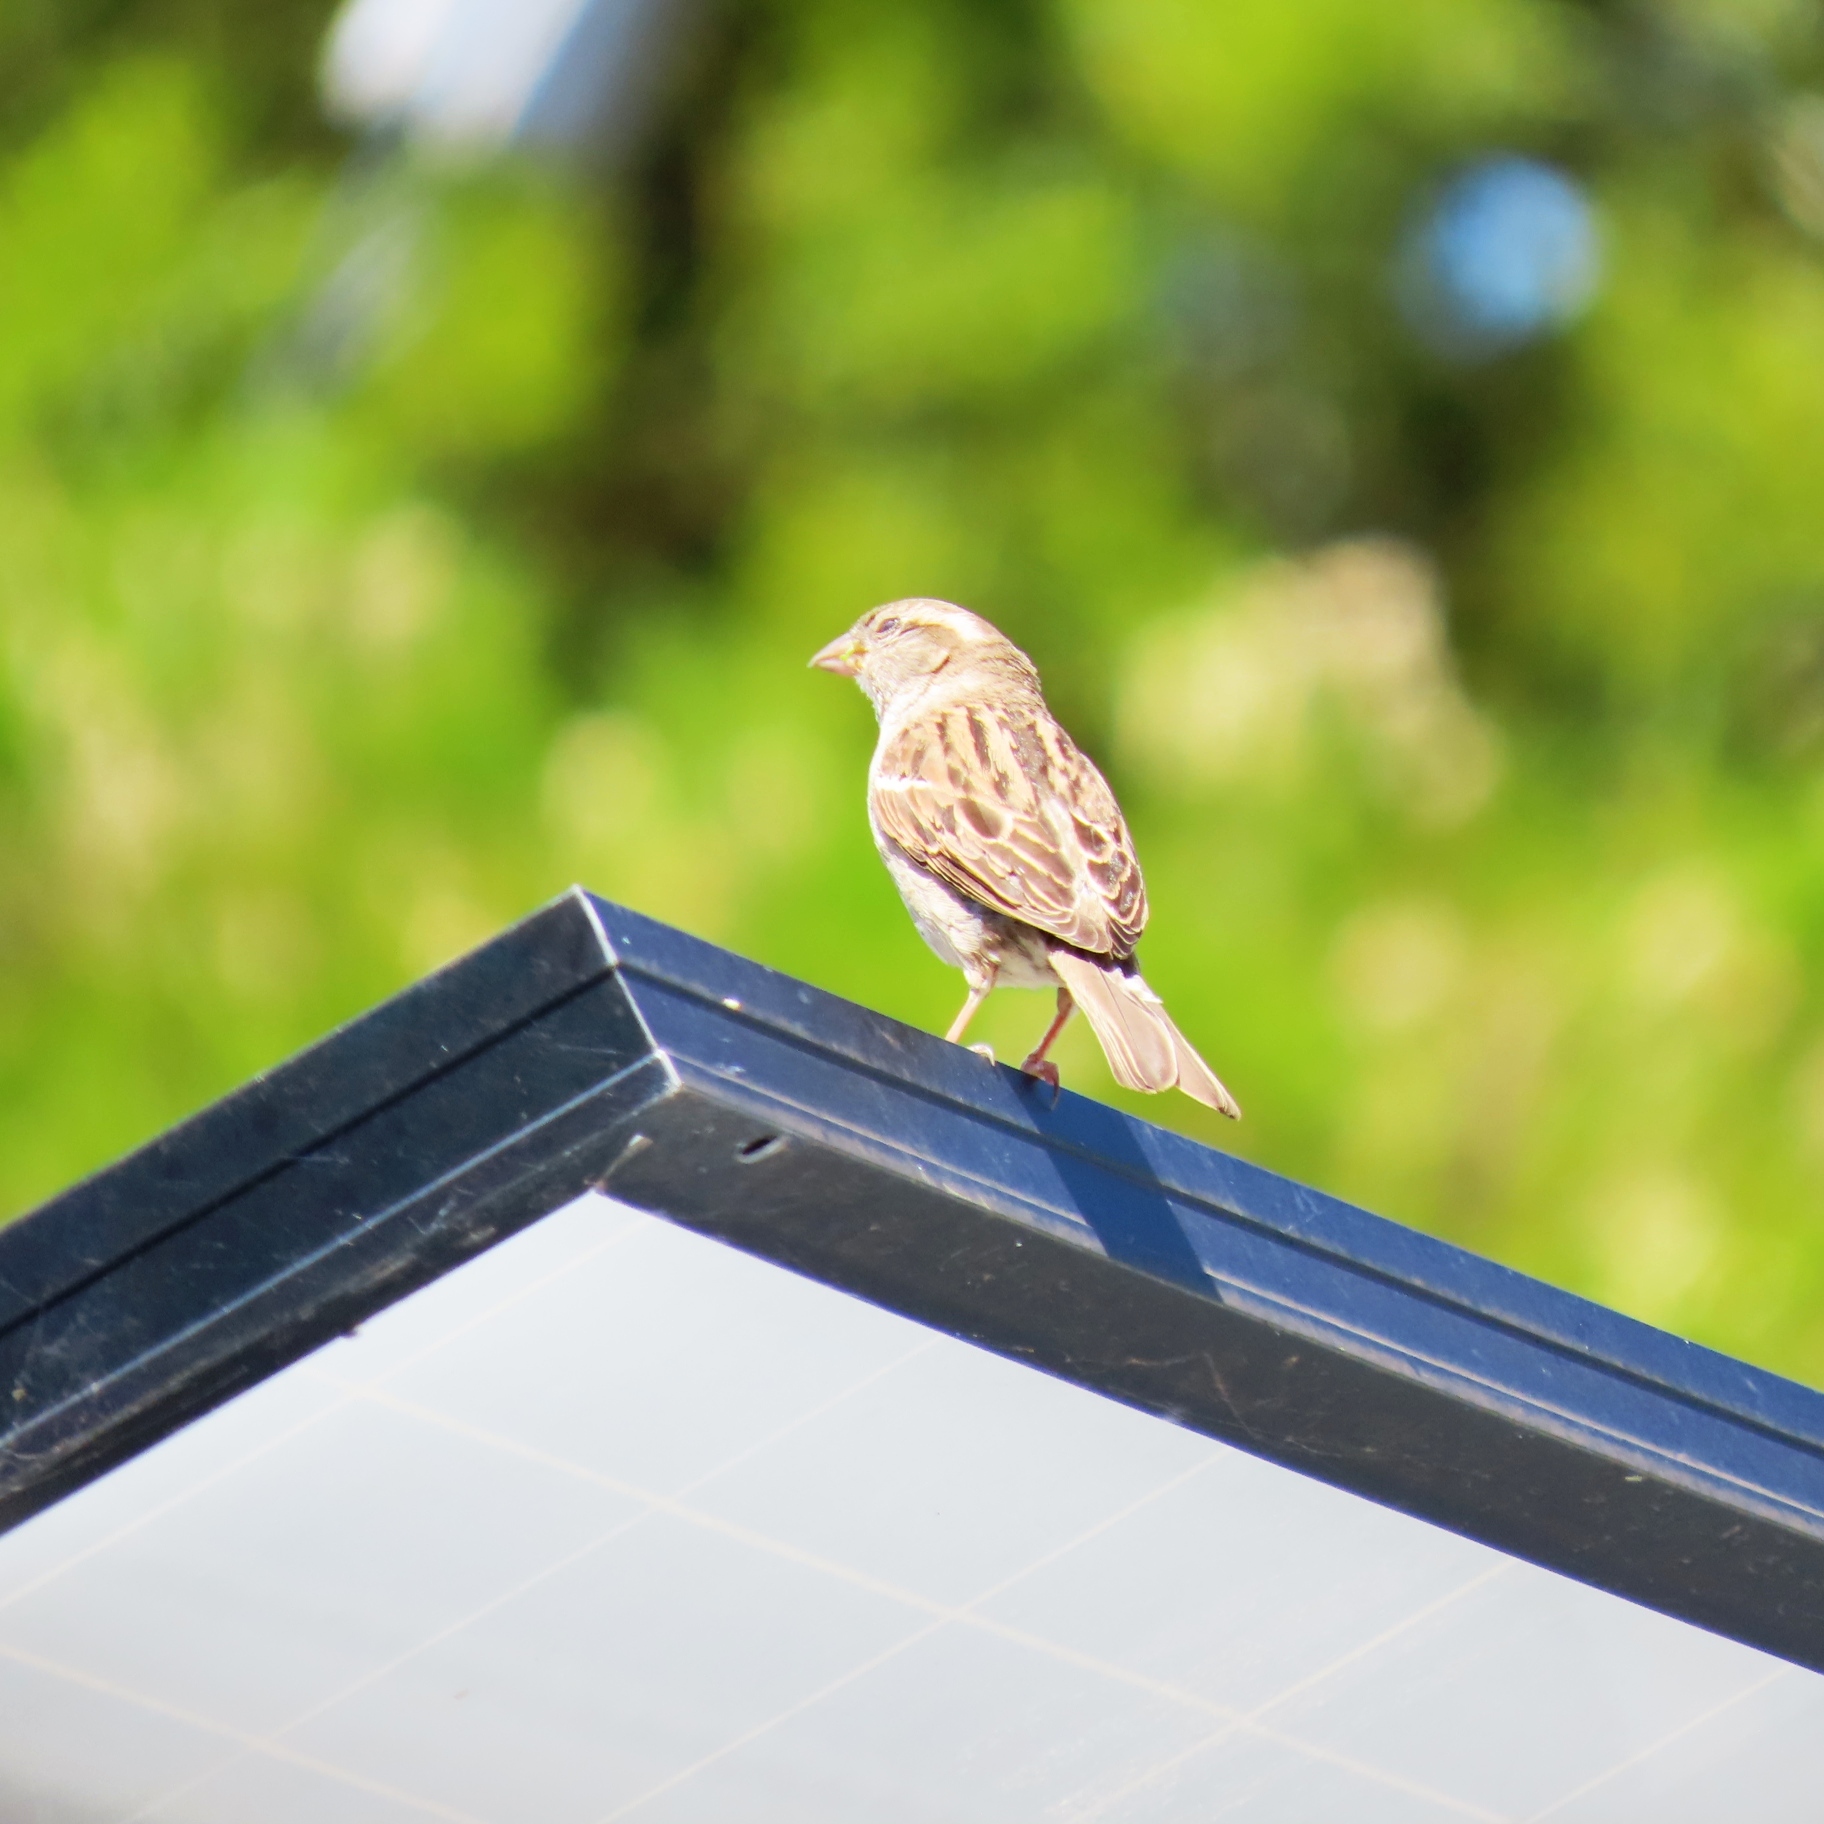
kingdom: Animalia
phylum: Chordata
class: Aves
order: Passeriformes
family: Passeridae
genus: Passer
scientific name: Passer domesticus
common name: House sparrow
